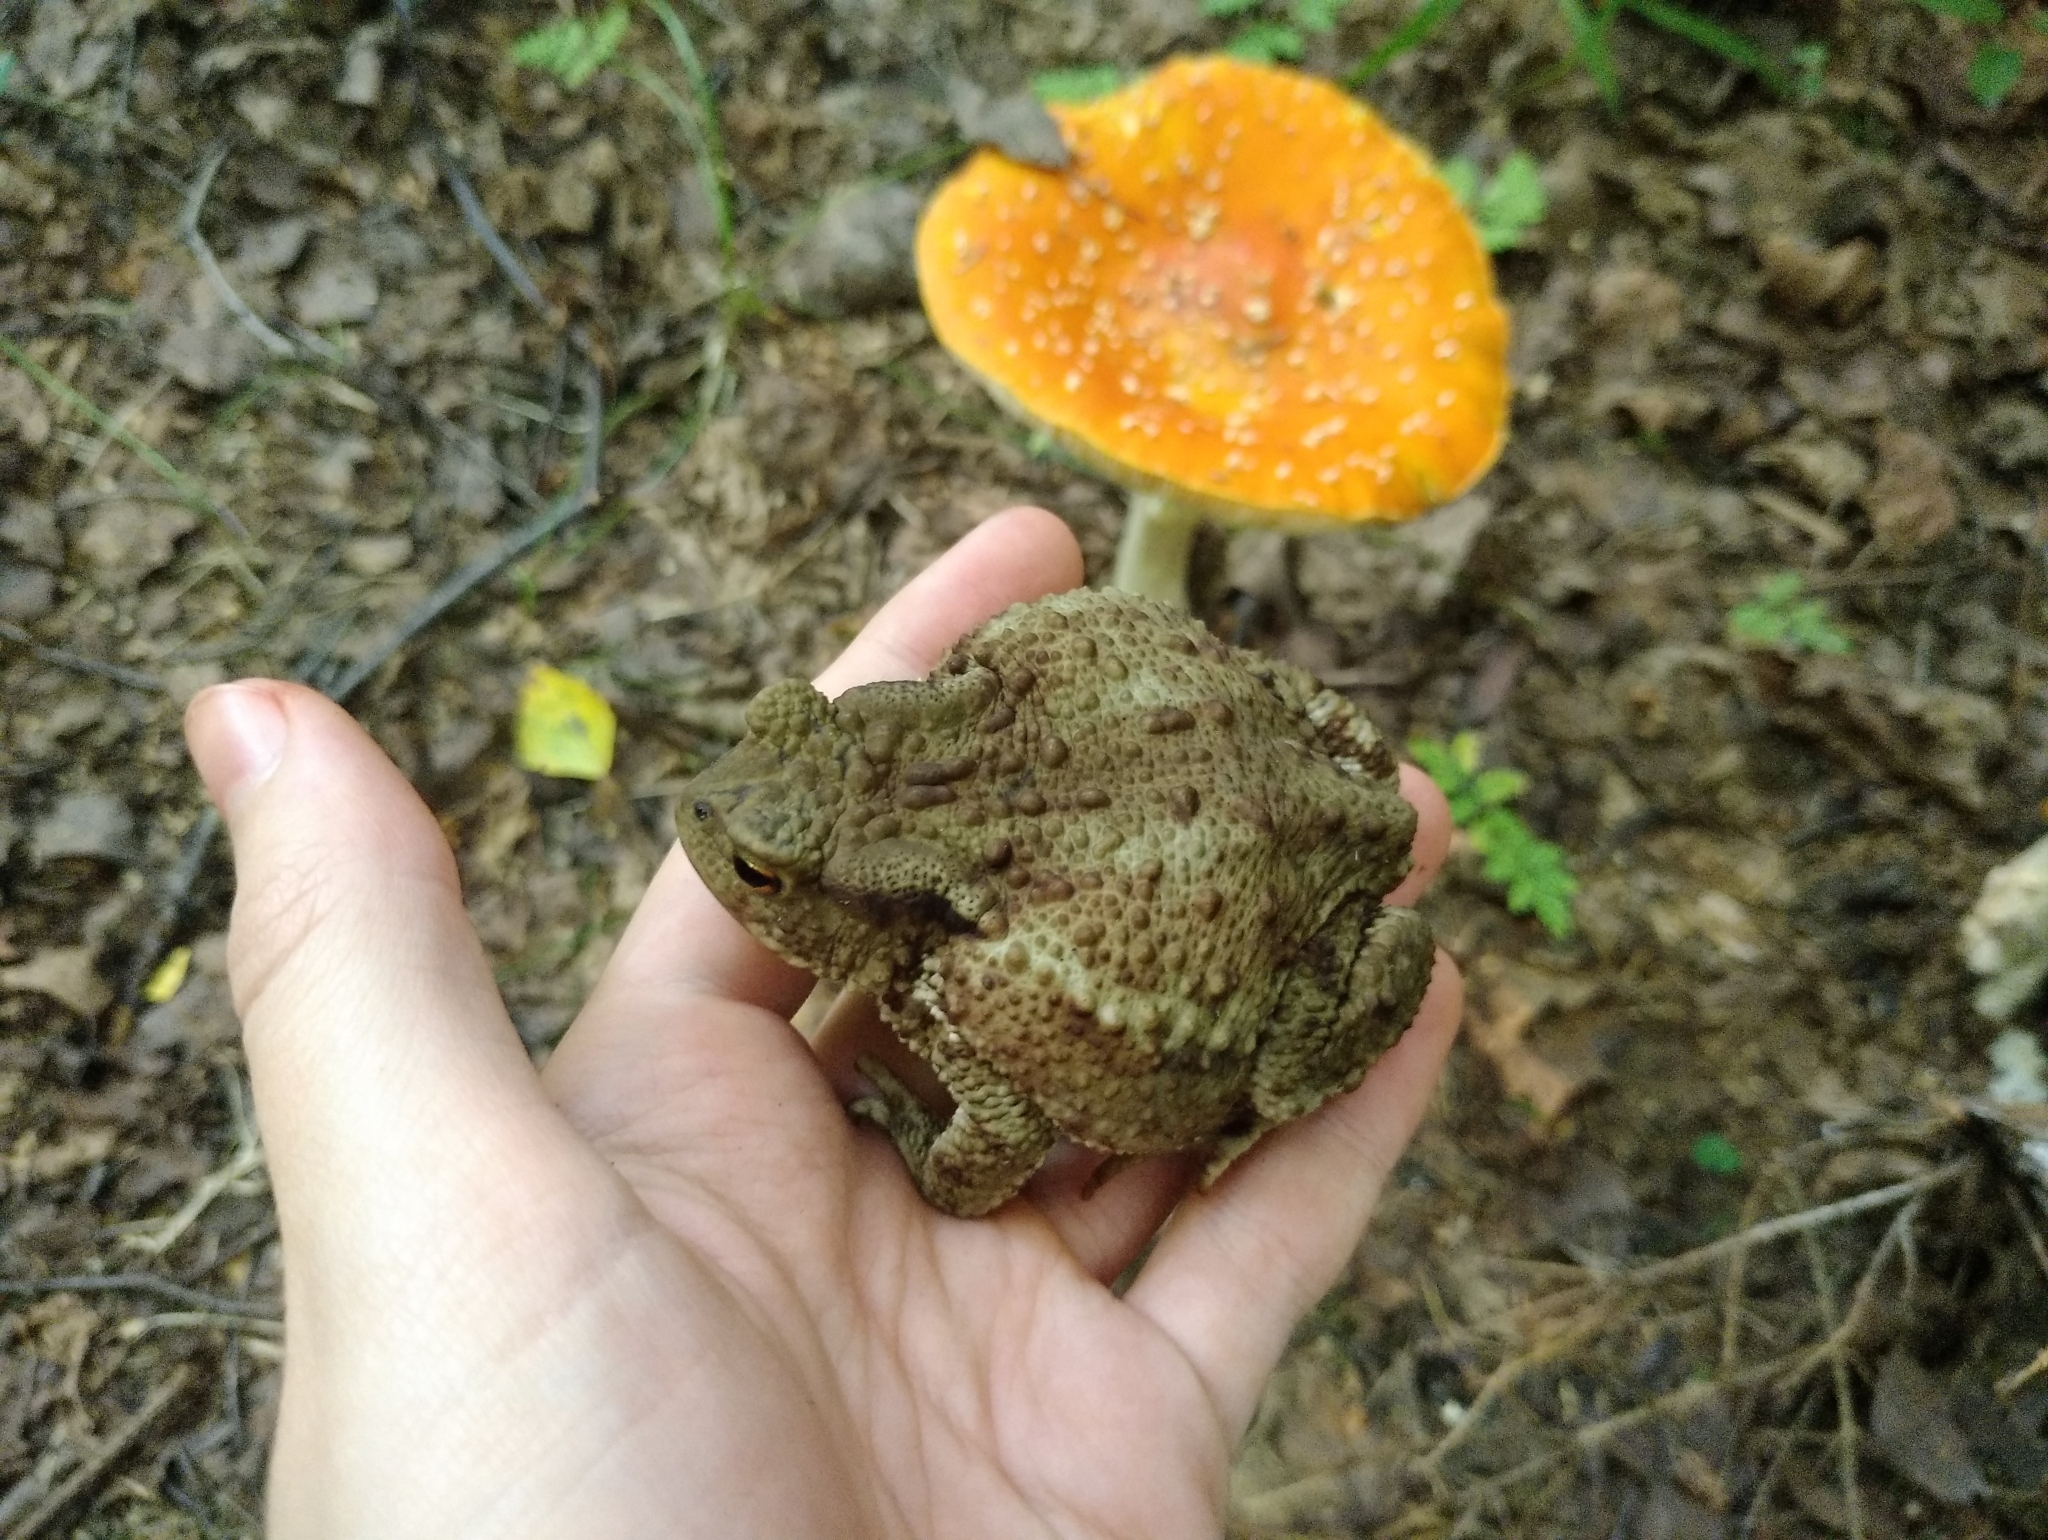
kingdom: Animalia
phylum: Chordata
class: Amphibia
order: Anura
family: Bufonidae
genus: Bufo
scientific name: Bufo bufo
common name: Common toad
